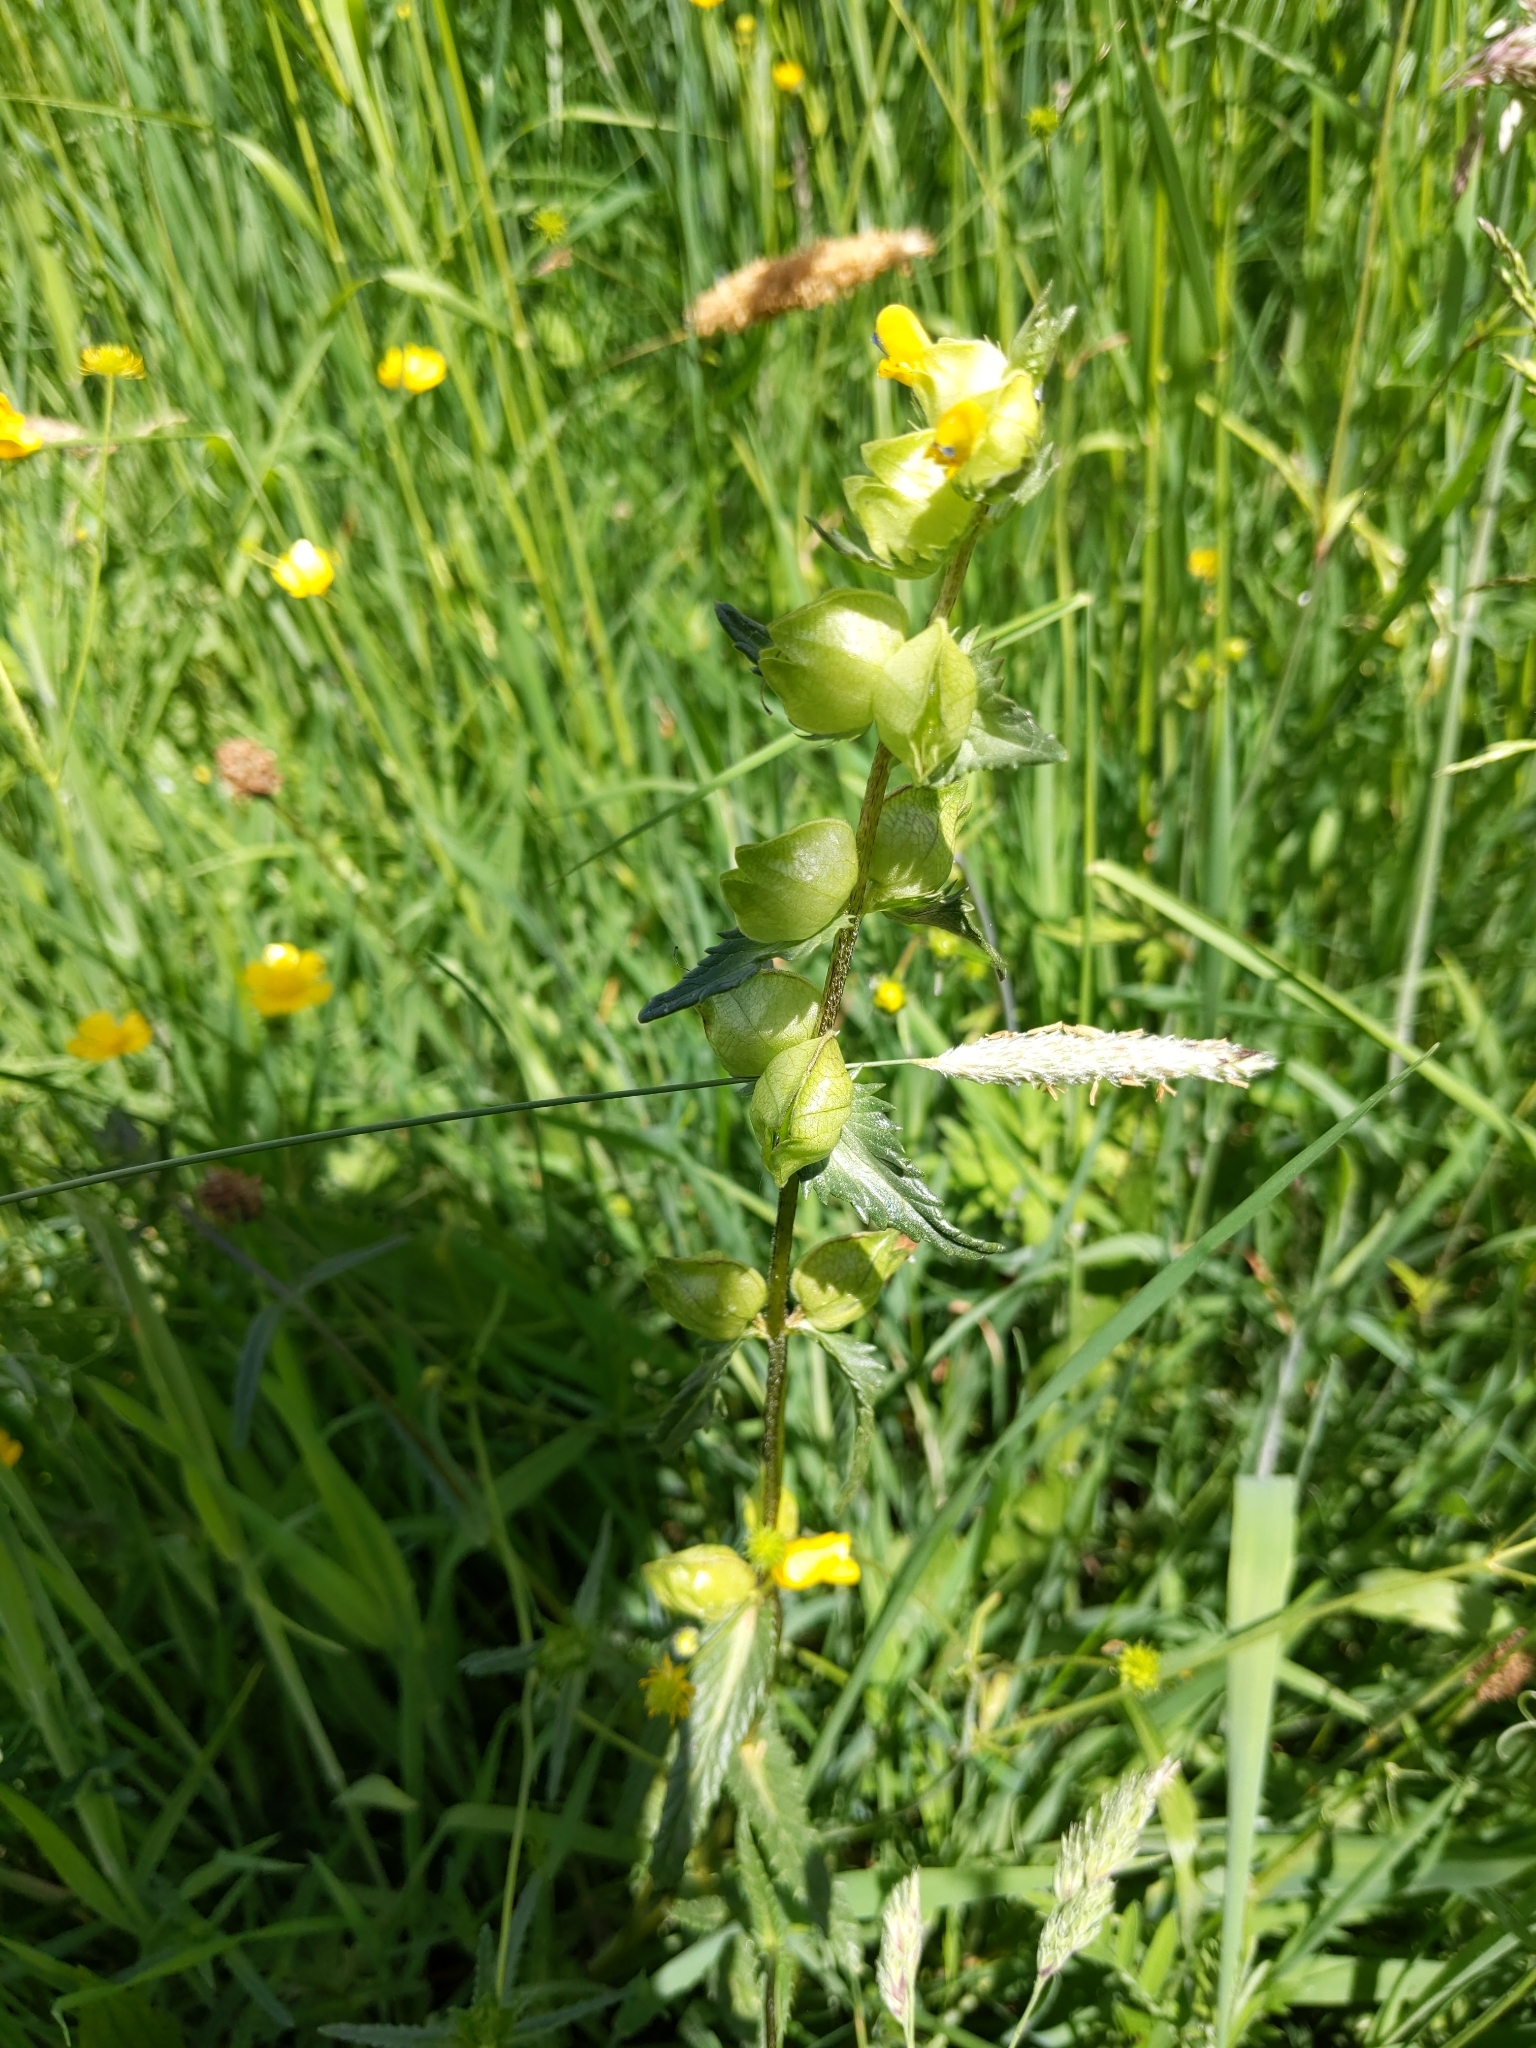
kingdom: Plantae
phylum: Tracheophyta
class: Magnoliopsida
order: Lamiales
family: Orobanchaceae
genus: Rhinanthus
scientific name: Rhinanthus minor
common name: Yellow-rattle
